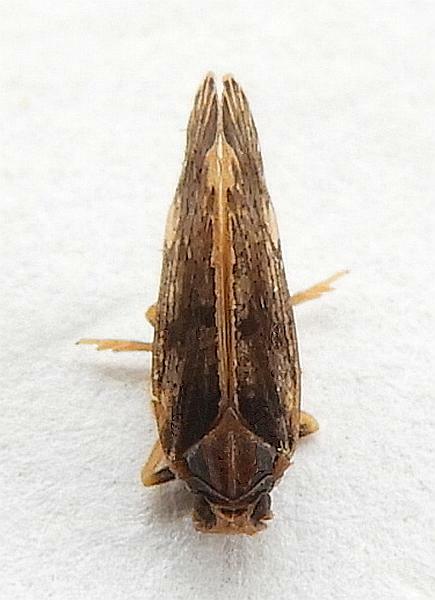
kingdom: Animalia
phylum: Arthropoda
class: Insecta
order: Hemiptera
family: Cixiidae
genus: Monorachis
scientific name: Monorachis sordulentus
